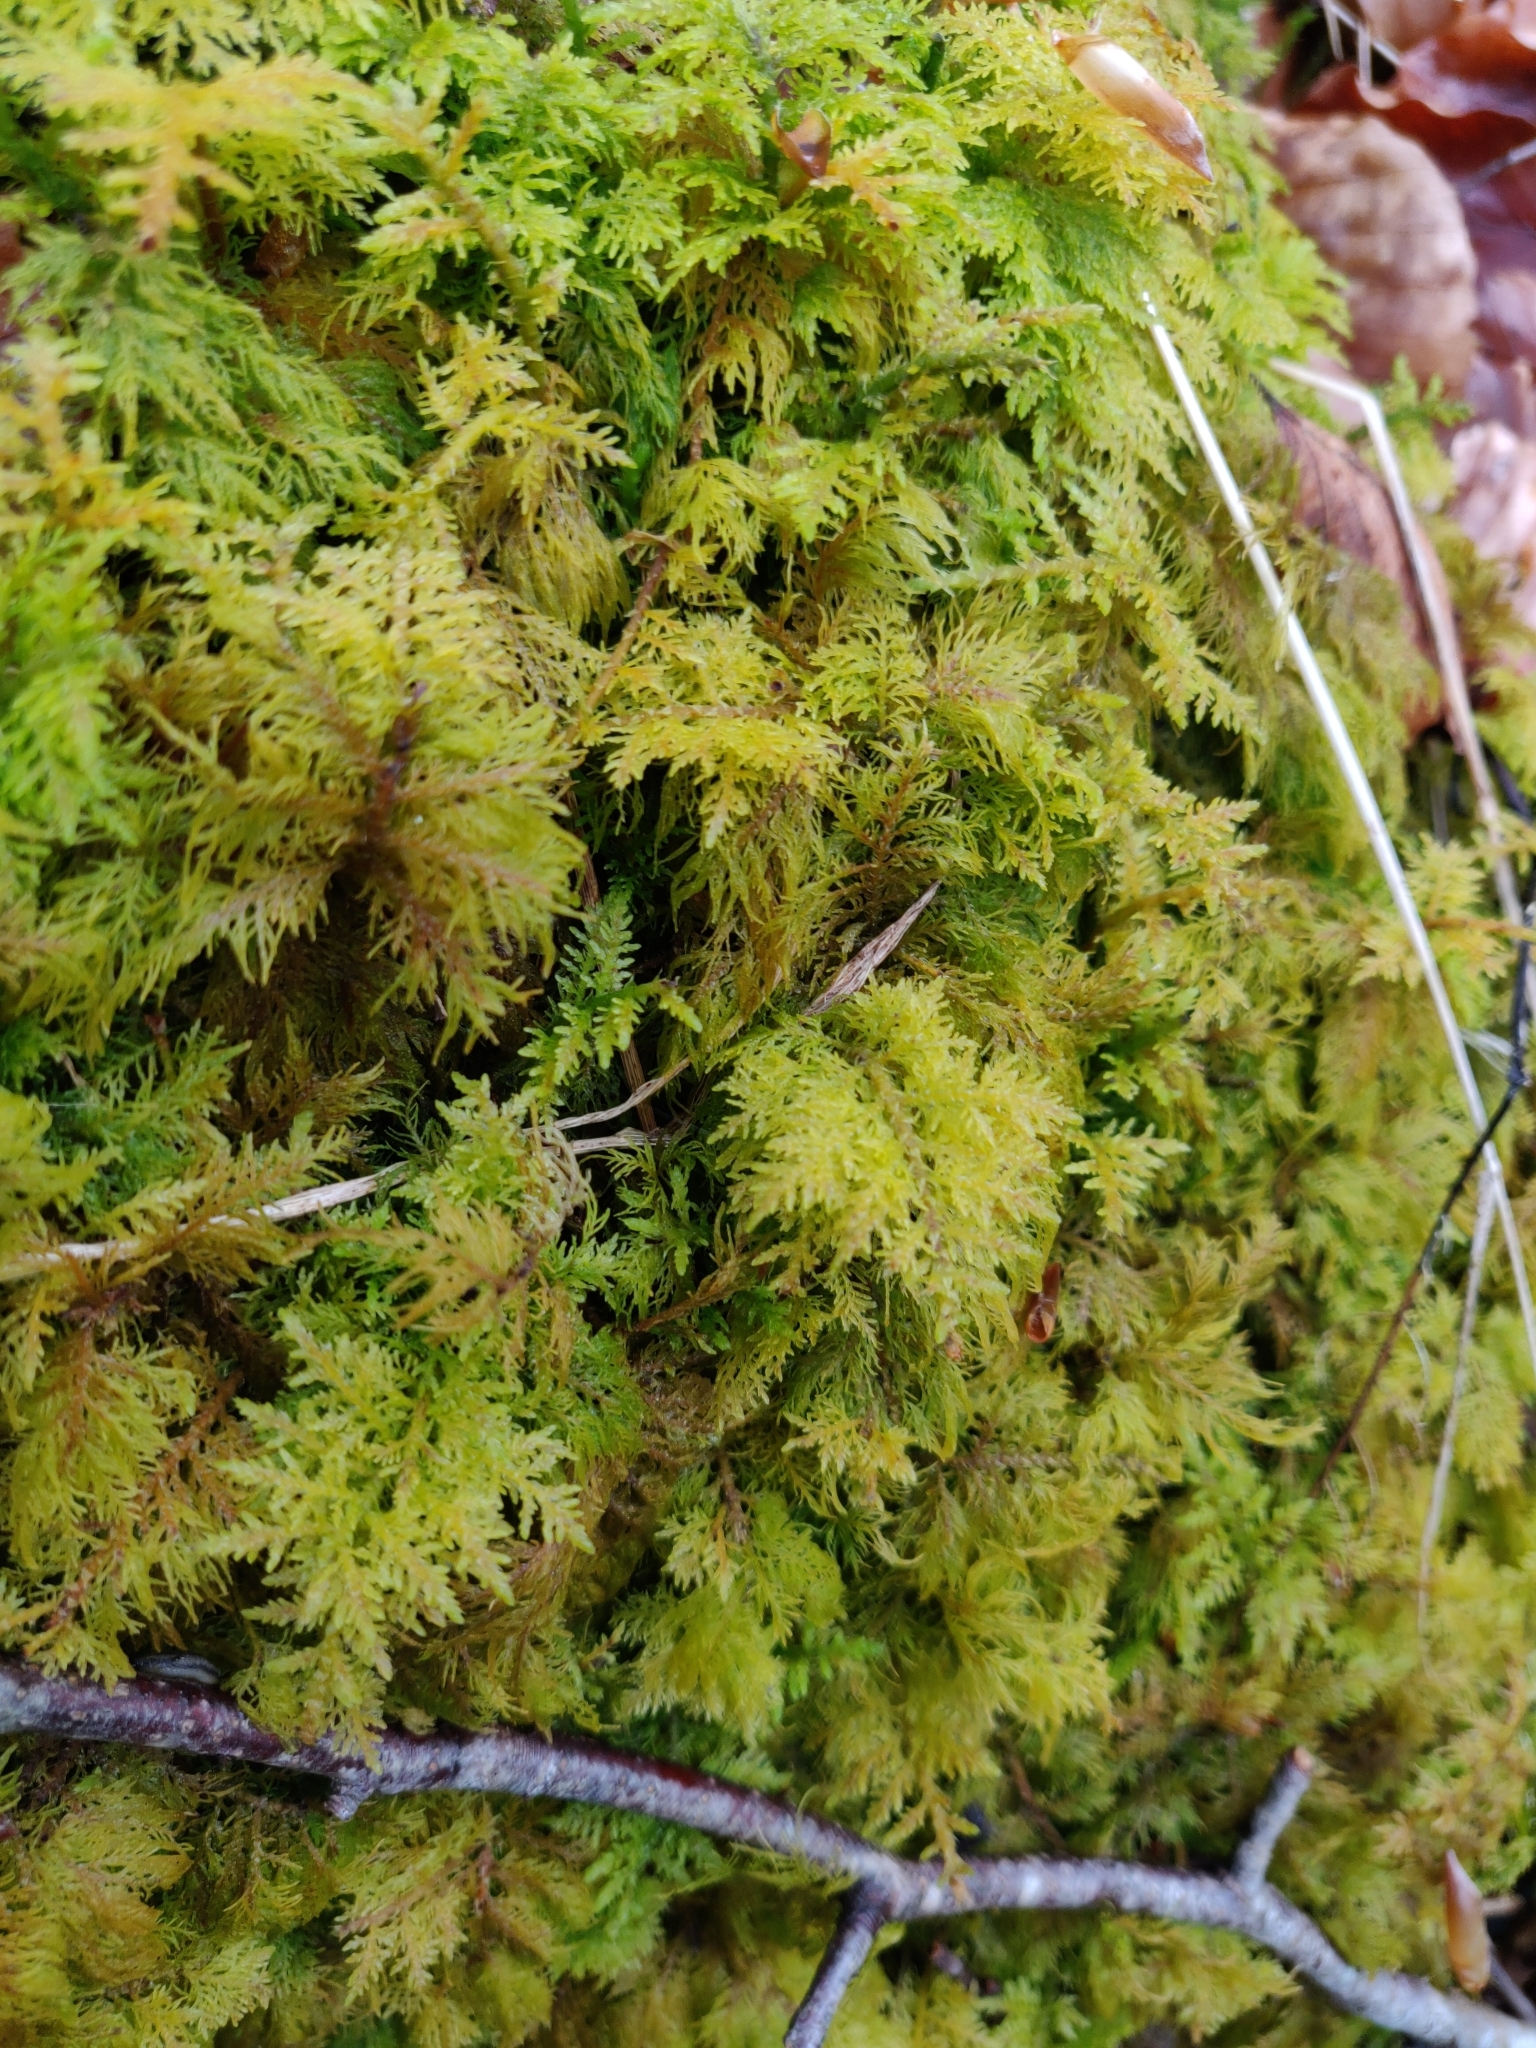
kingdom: Plantae
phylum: Bryophyta
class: Bryopsida
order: Hypnales
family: Thuidiaceae
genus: Thuidium
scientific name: Thuidium tamariscinum
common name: Common tamarisk-moss
